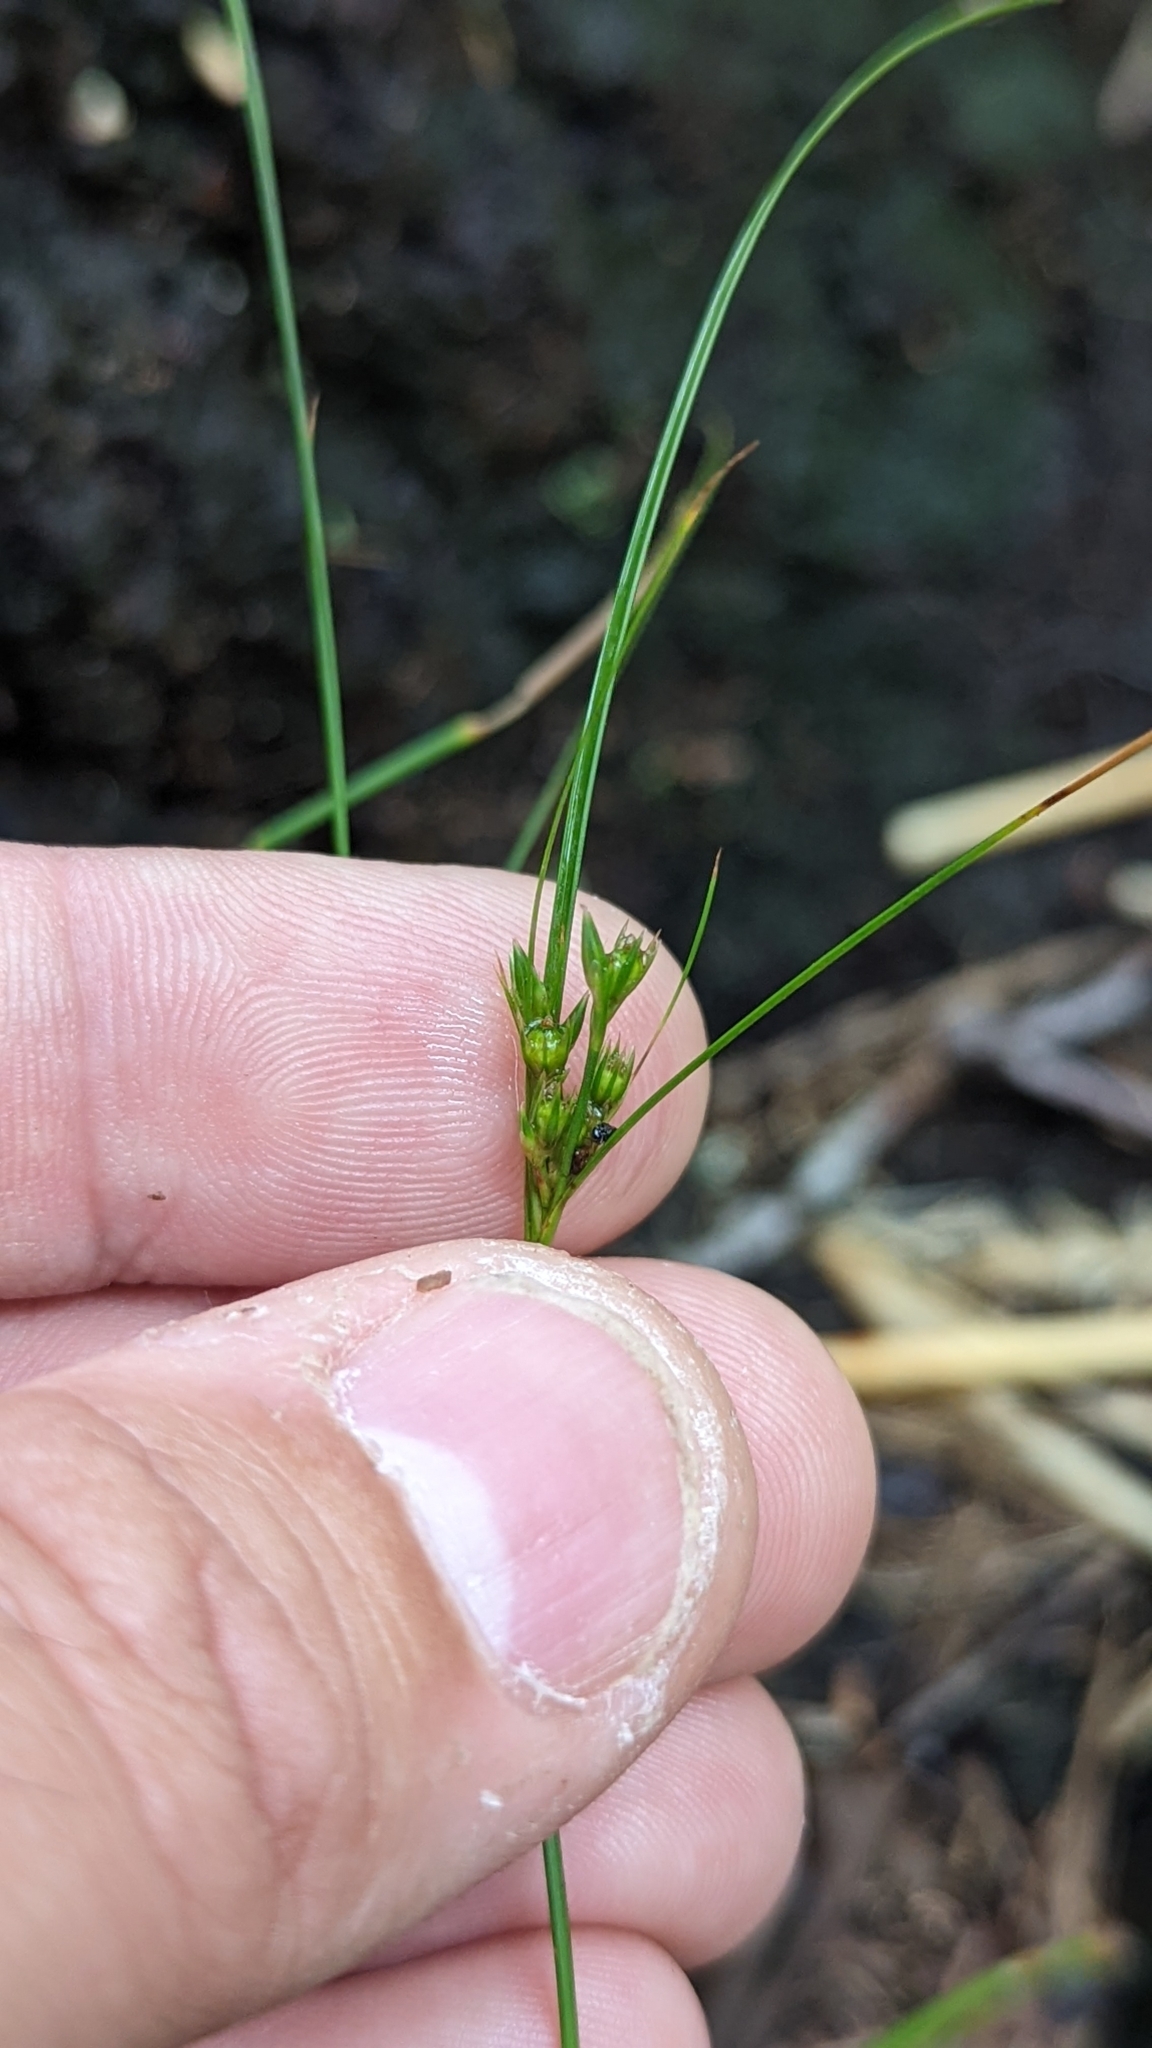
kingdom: Plantae
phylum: Tracheophyta
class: Liliopsida
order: Poales
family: Juncaceae
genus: Juncus
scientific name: Juncus tenuis
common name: Slender rush
